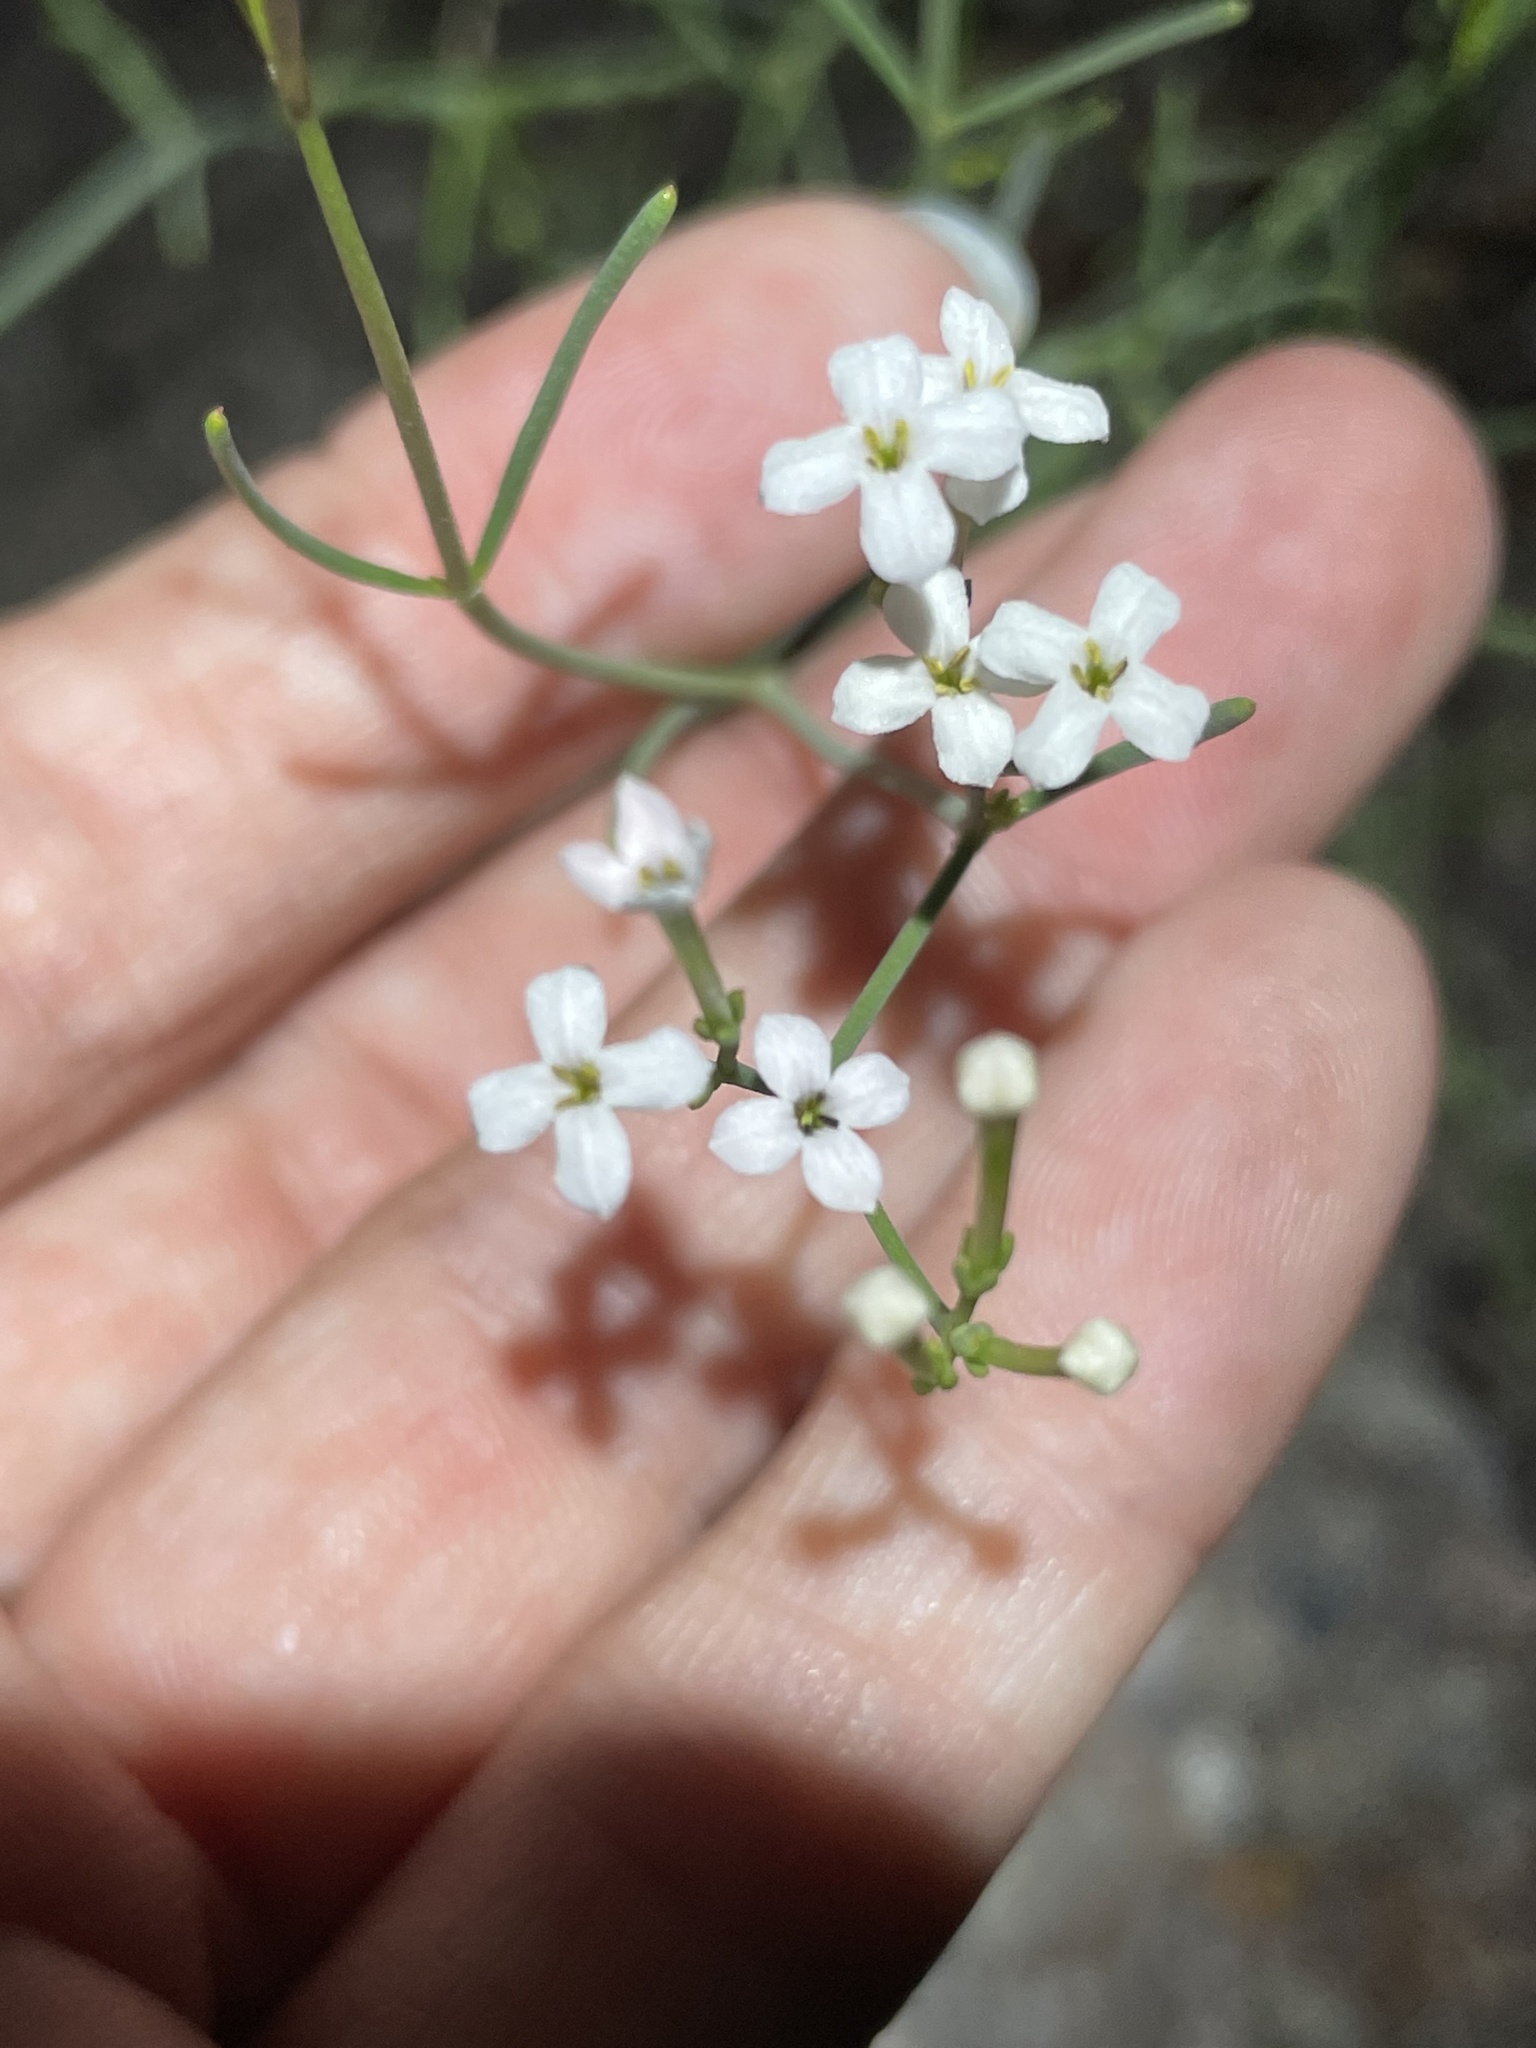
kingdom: Plantae
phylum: Tracheophyta
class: Magnoliopsida
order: Gentianales
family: Rubiaceae
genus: Stenotis
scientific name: Stenotis brevipes
